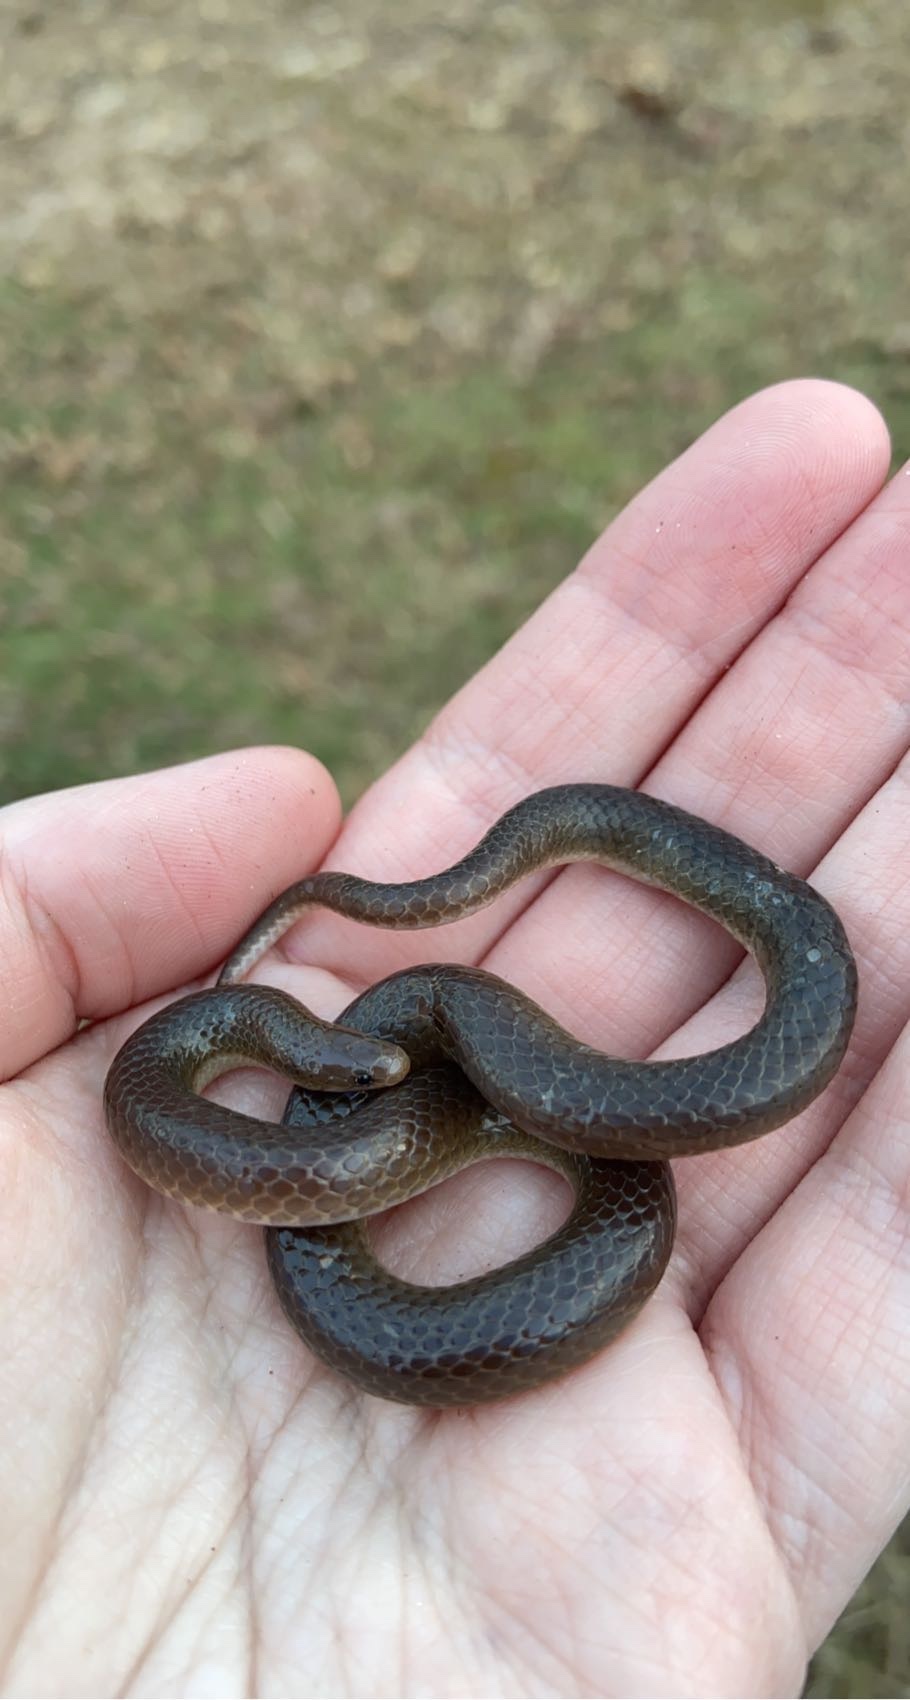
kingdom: Animalia
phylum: Chordata
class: Squamata
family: Colubridae
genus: Carphophis
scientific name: Carphophis amoenus
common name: Eastern worm snake
